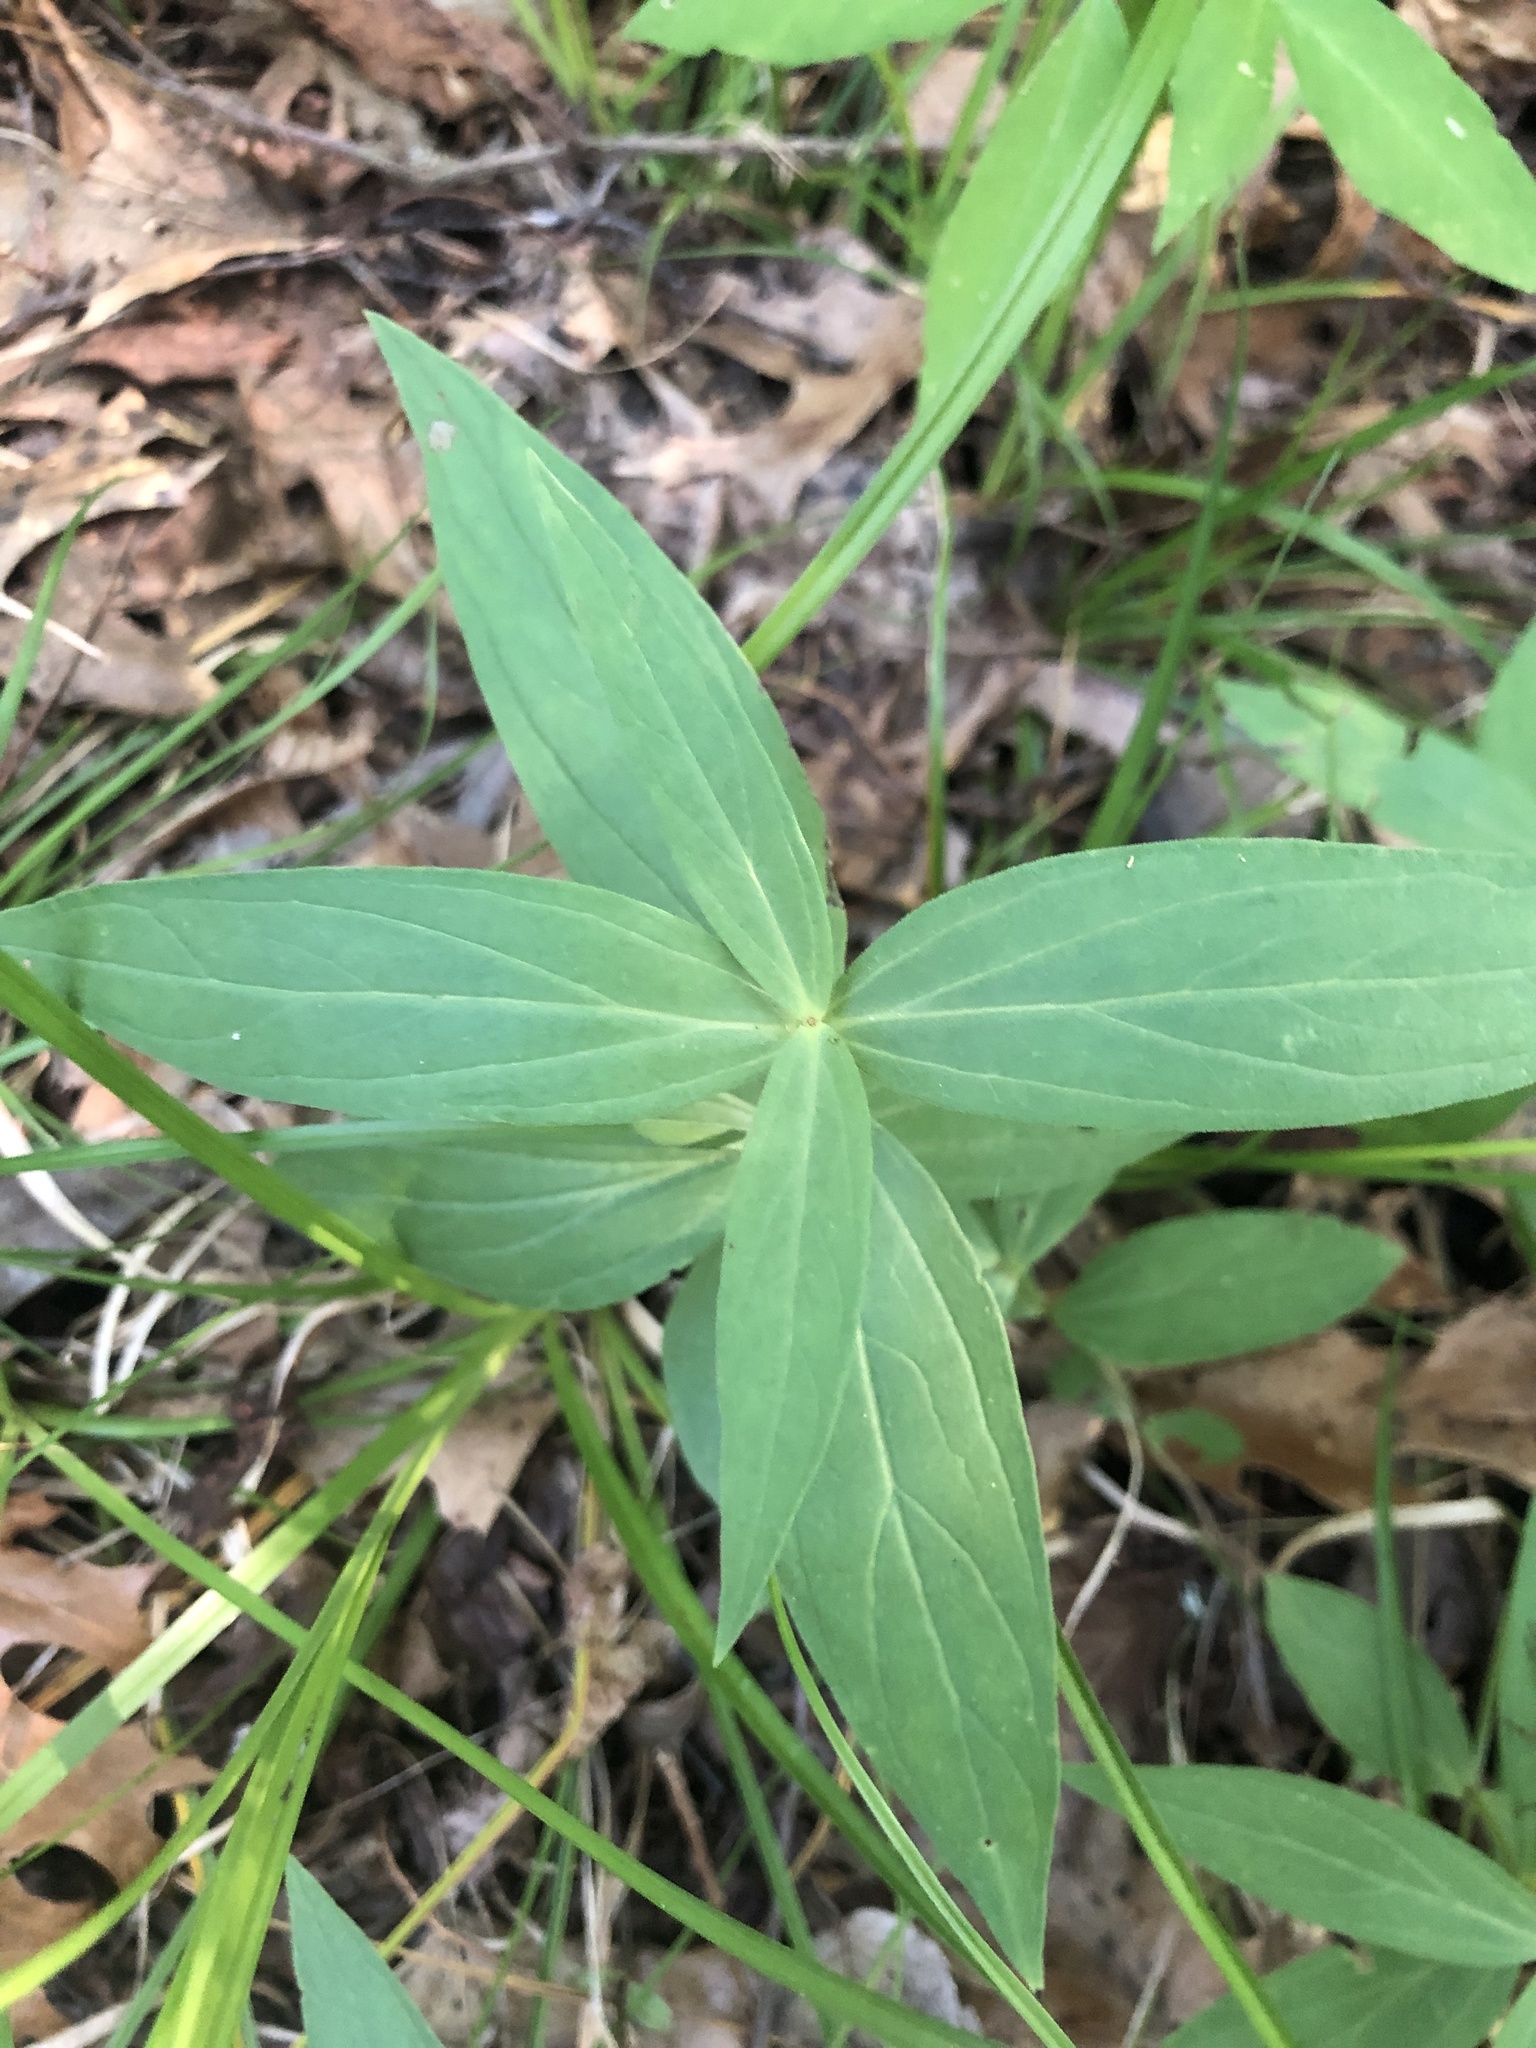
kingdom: Plantae
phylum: Tracheophyta
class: Magnoliopsida
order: Gentianales
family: Loganiaceae
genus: Spigelia
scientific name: Spigelia marilandica
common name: Indian-pink
